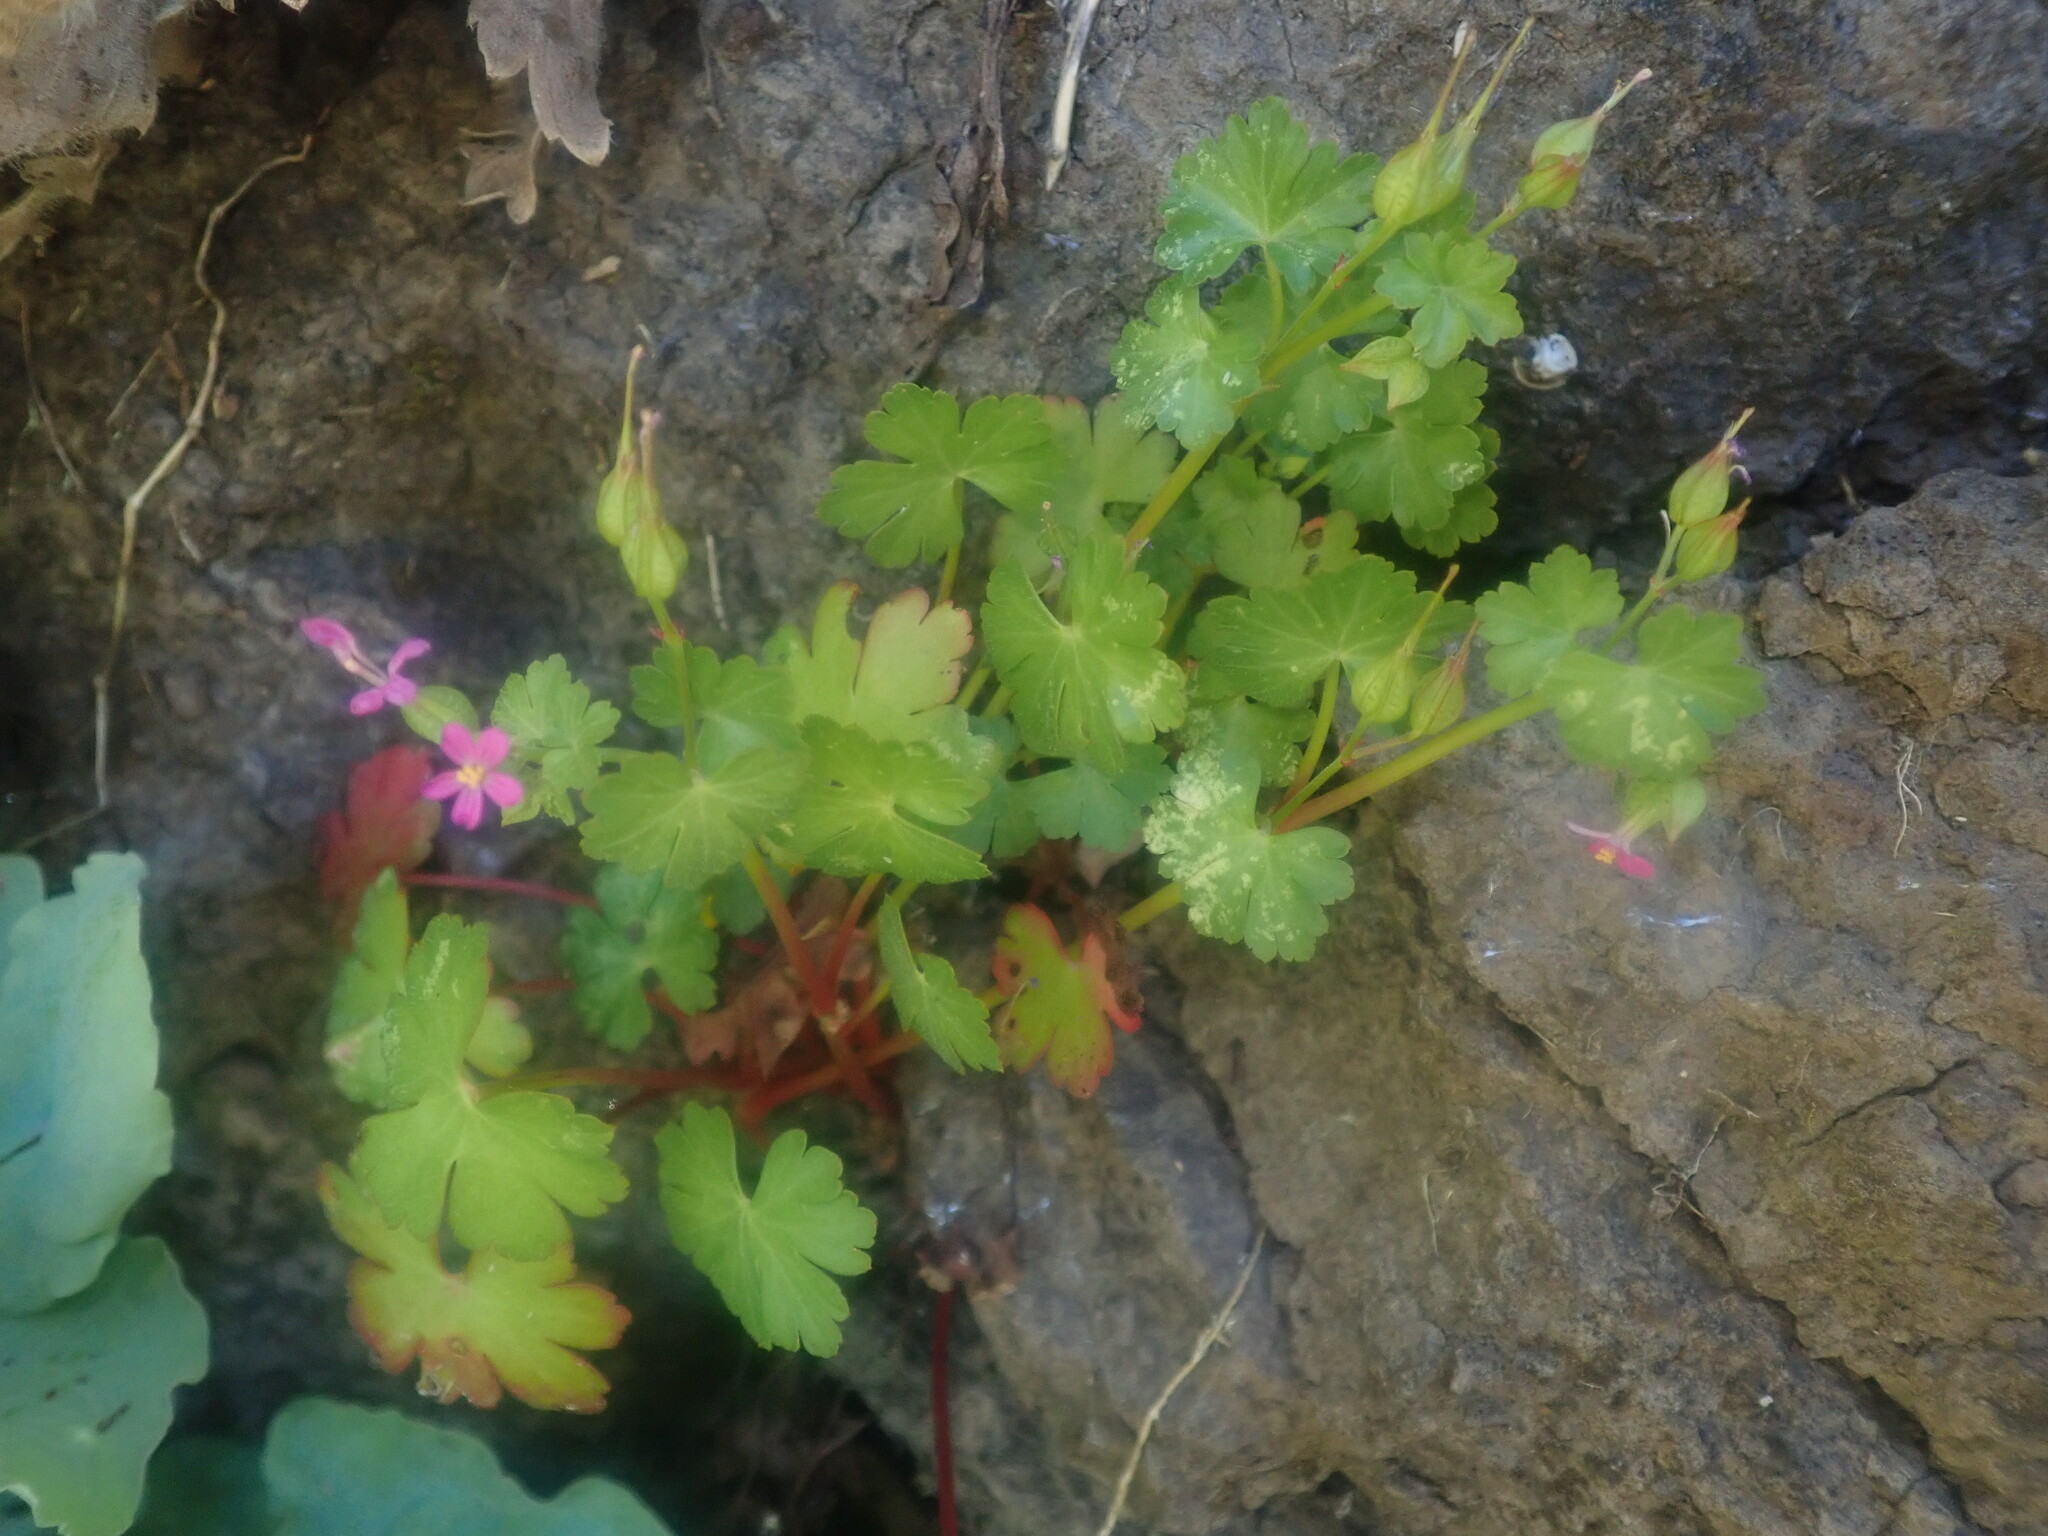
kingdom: Plantae
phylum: Tracheophyta
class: Magnoliopsida
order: Geraniales
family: Geraniaceae
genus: Geranium
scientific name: Geranium lucidum
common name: Shining crane's-bill
